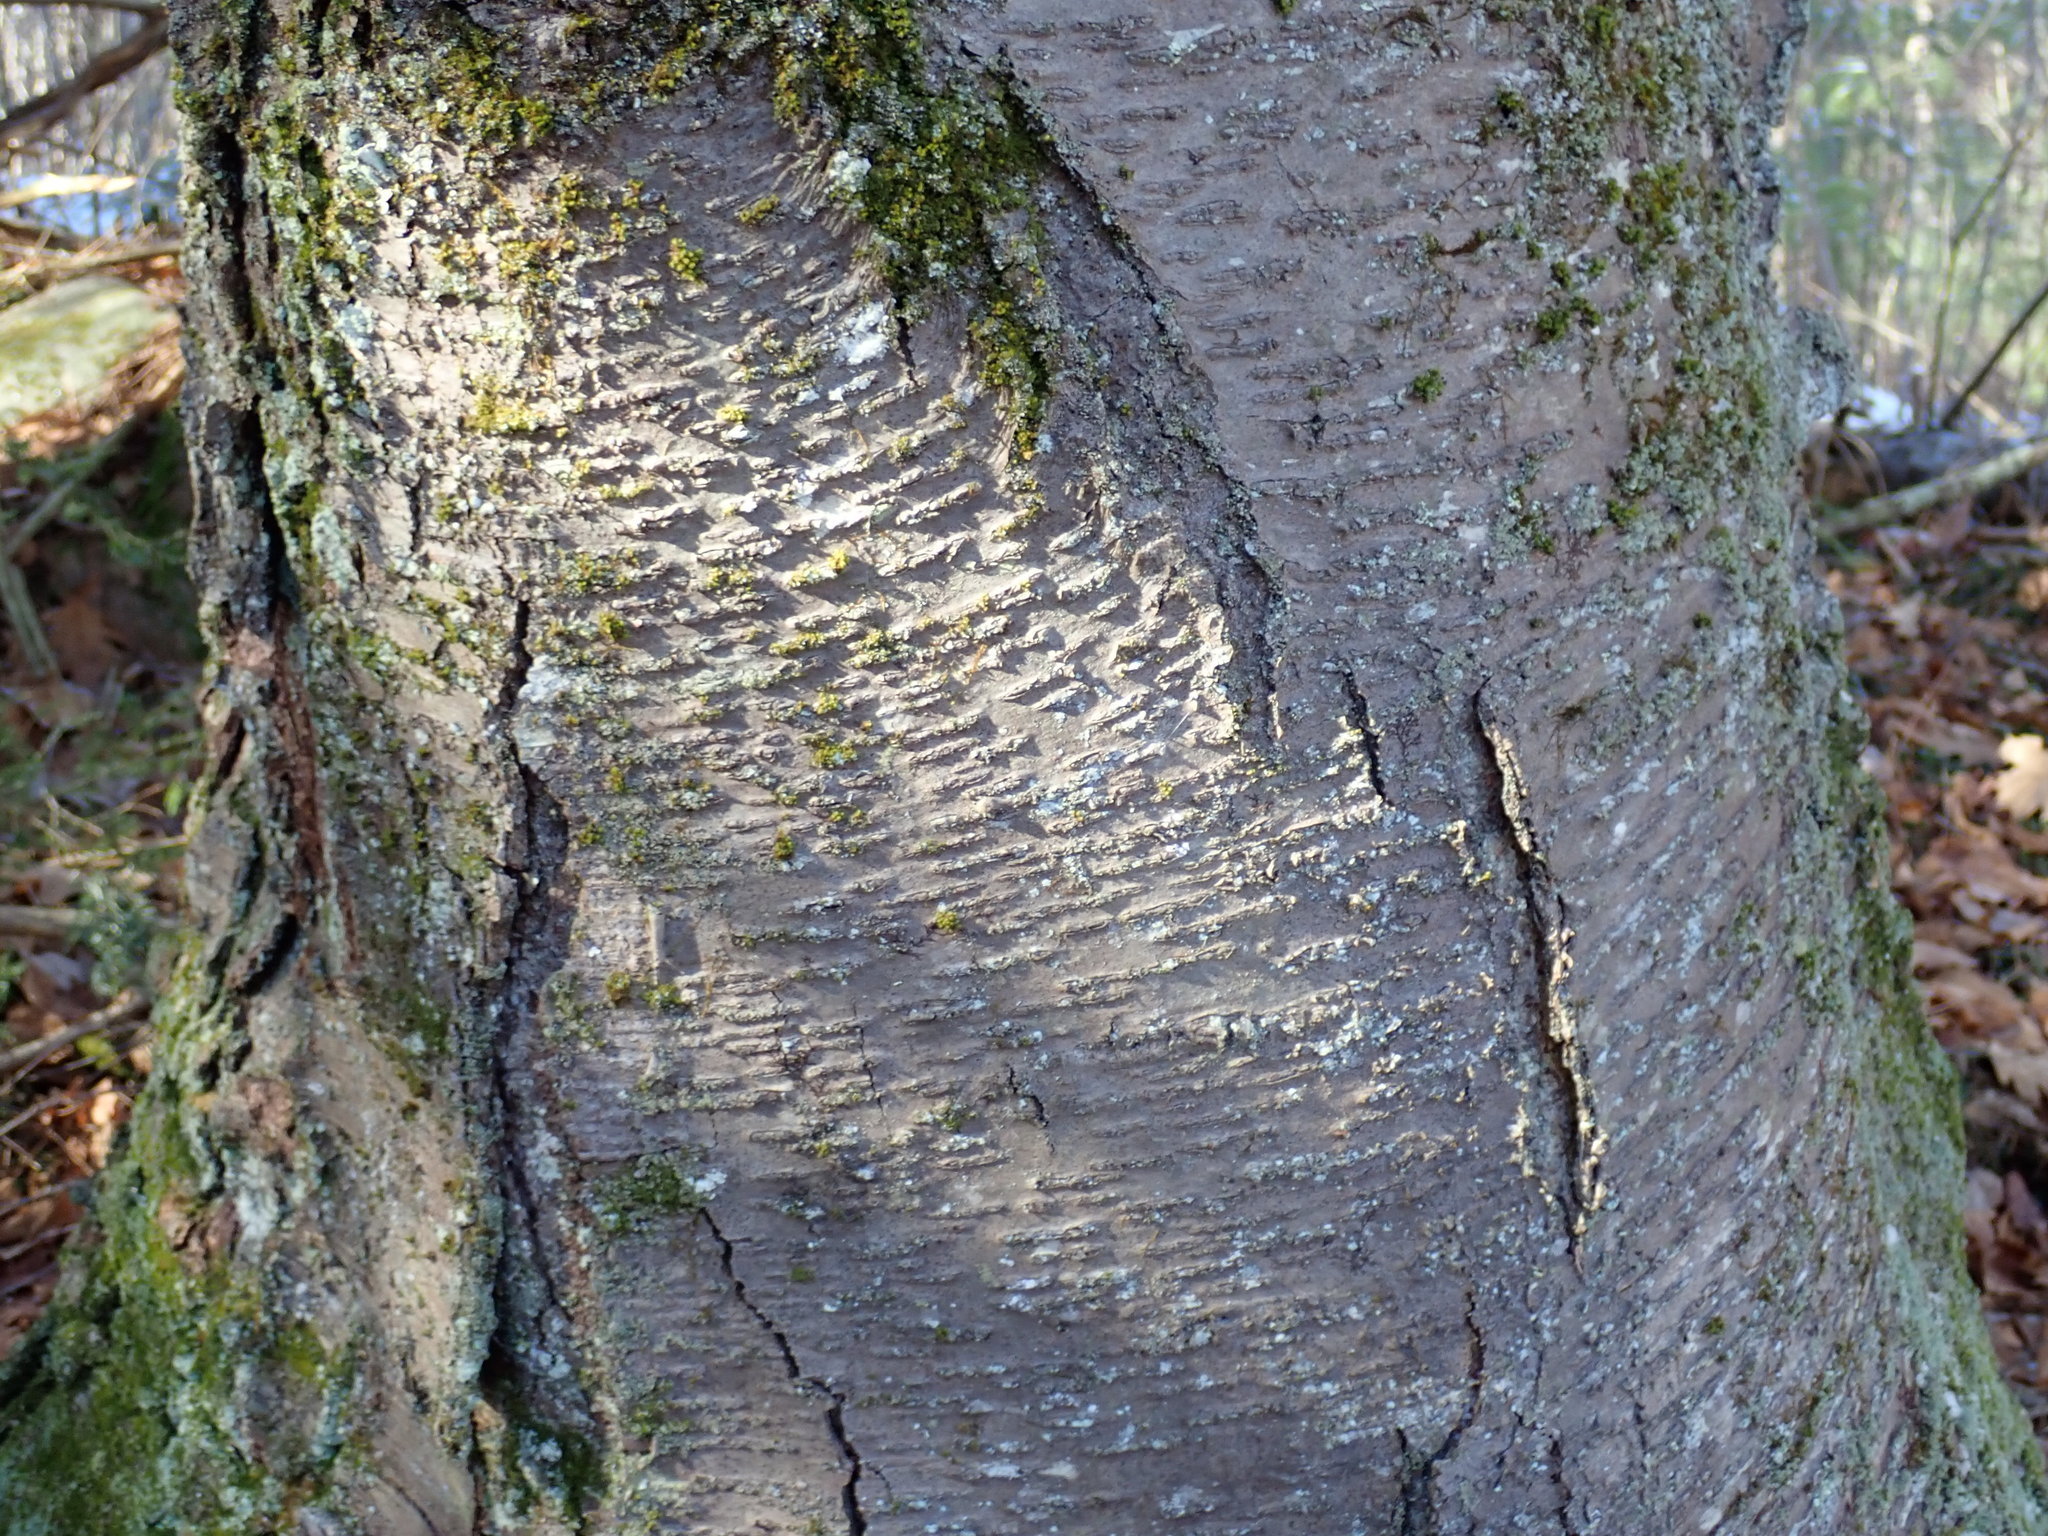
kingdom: Plantae
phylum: Tracheophyta
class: Magnoliopsida
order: Fagales
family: Betulaceae
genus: Betula
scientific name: Betula lenta
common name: Black birch
